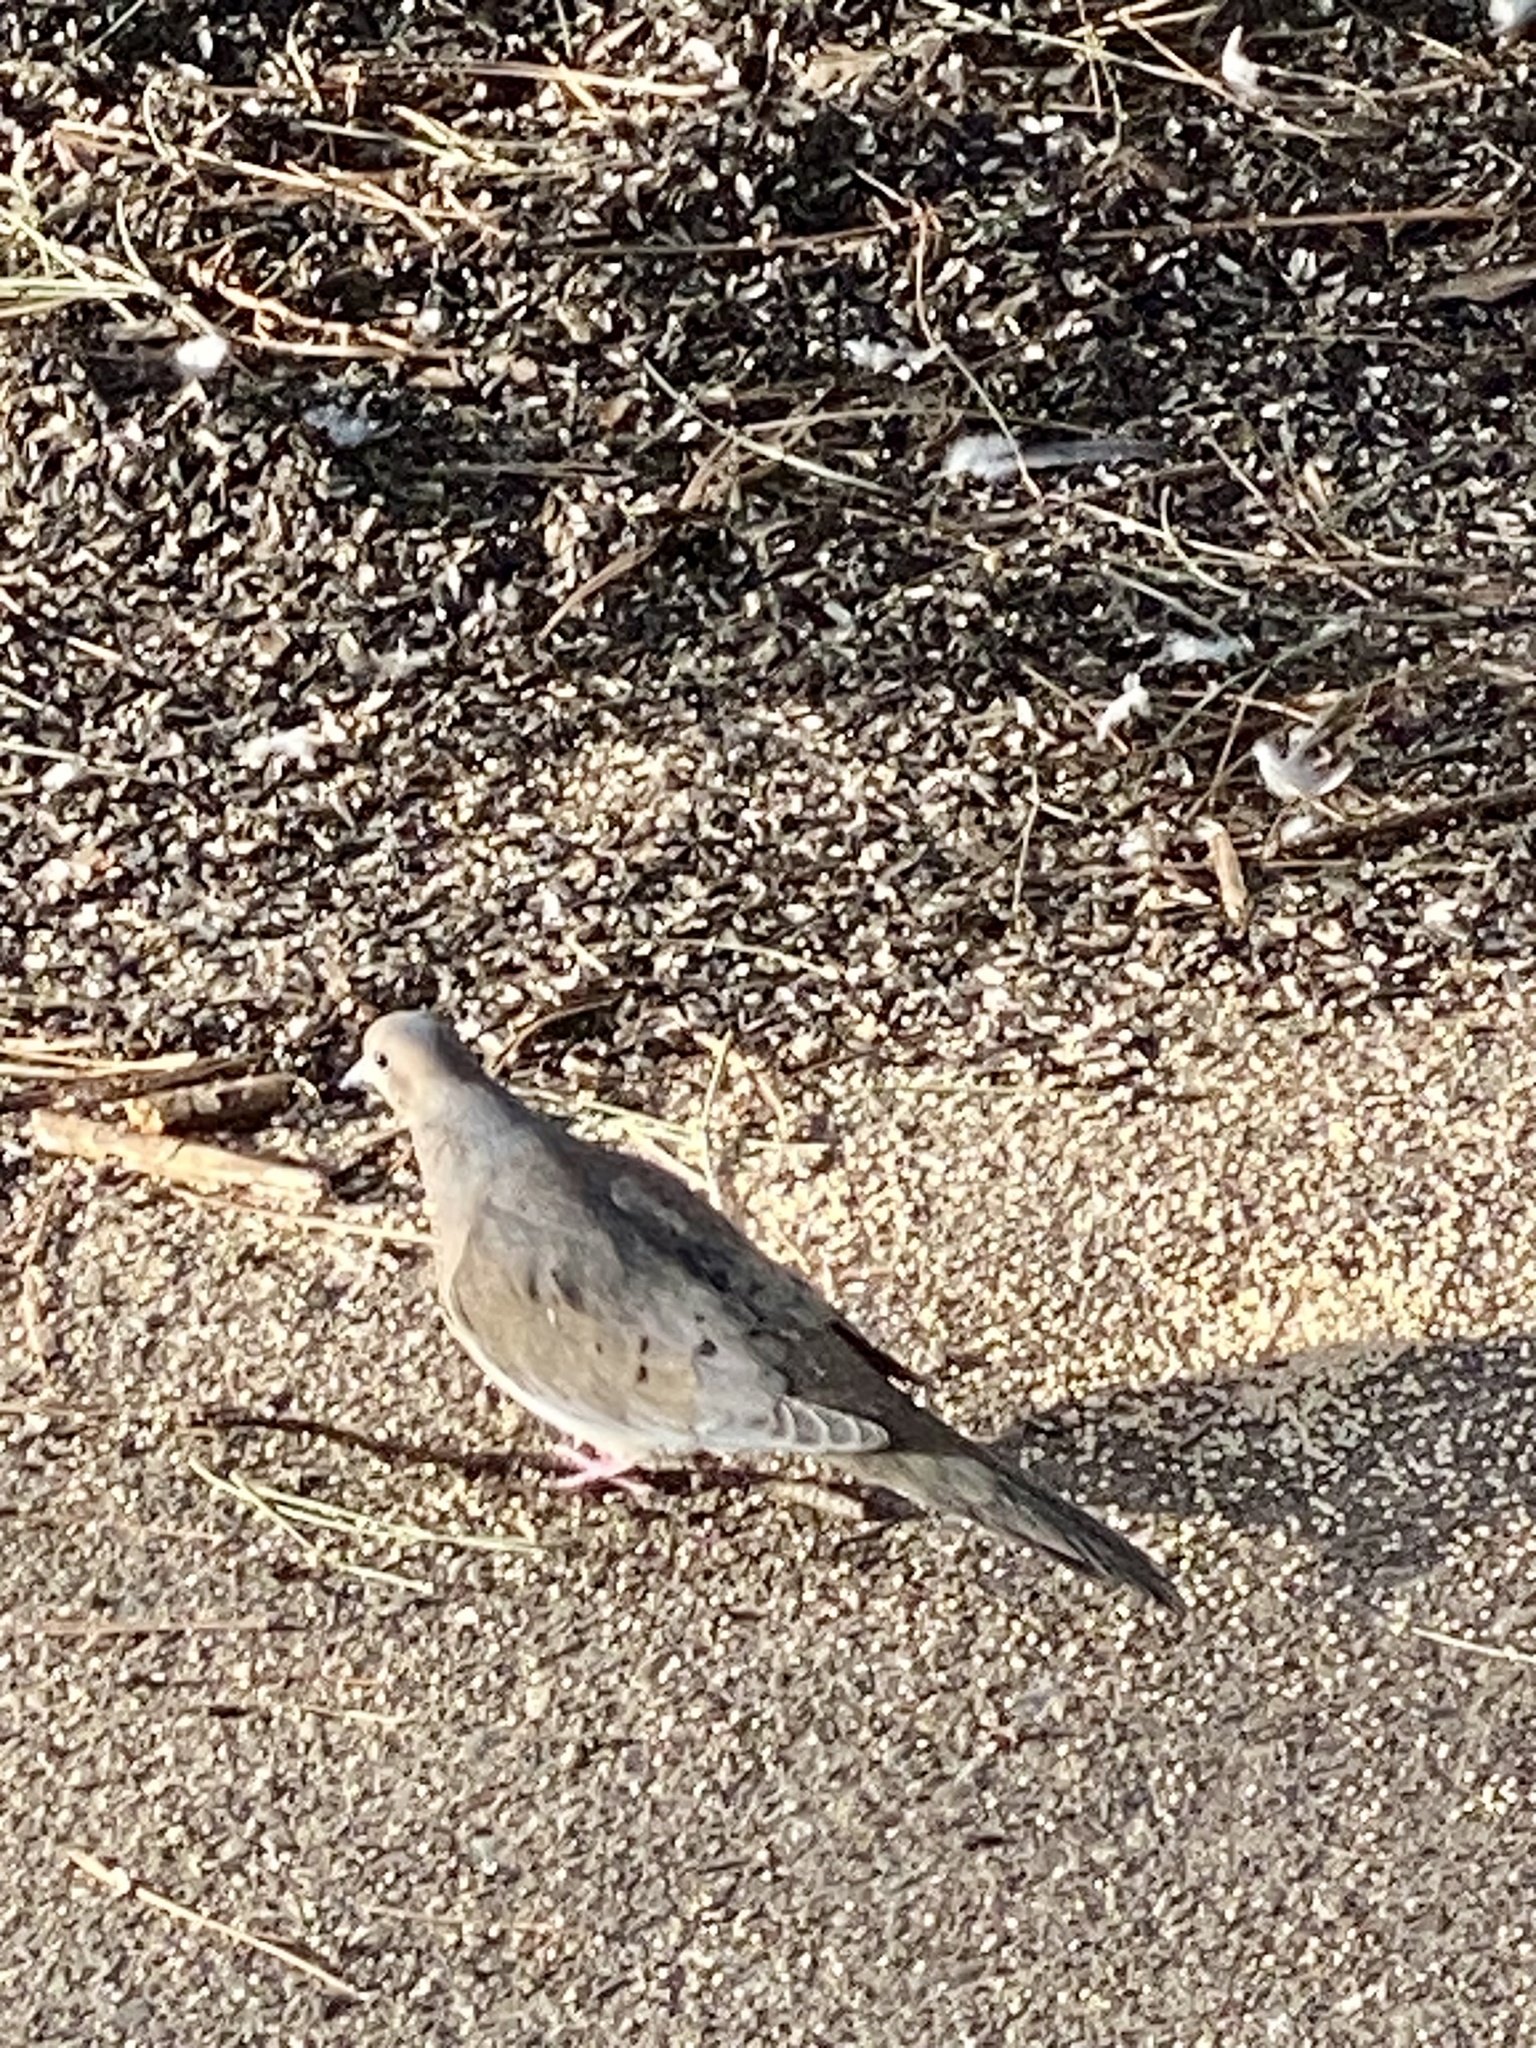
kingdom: Animalia
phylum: Chordata
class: Aves
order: Columbiformes
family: Columbidae
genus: Zenaida
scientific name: Zenaida macroura
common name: Mourning dove
